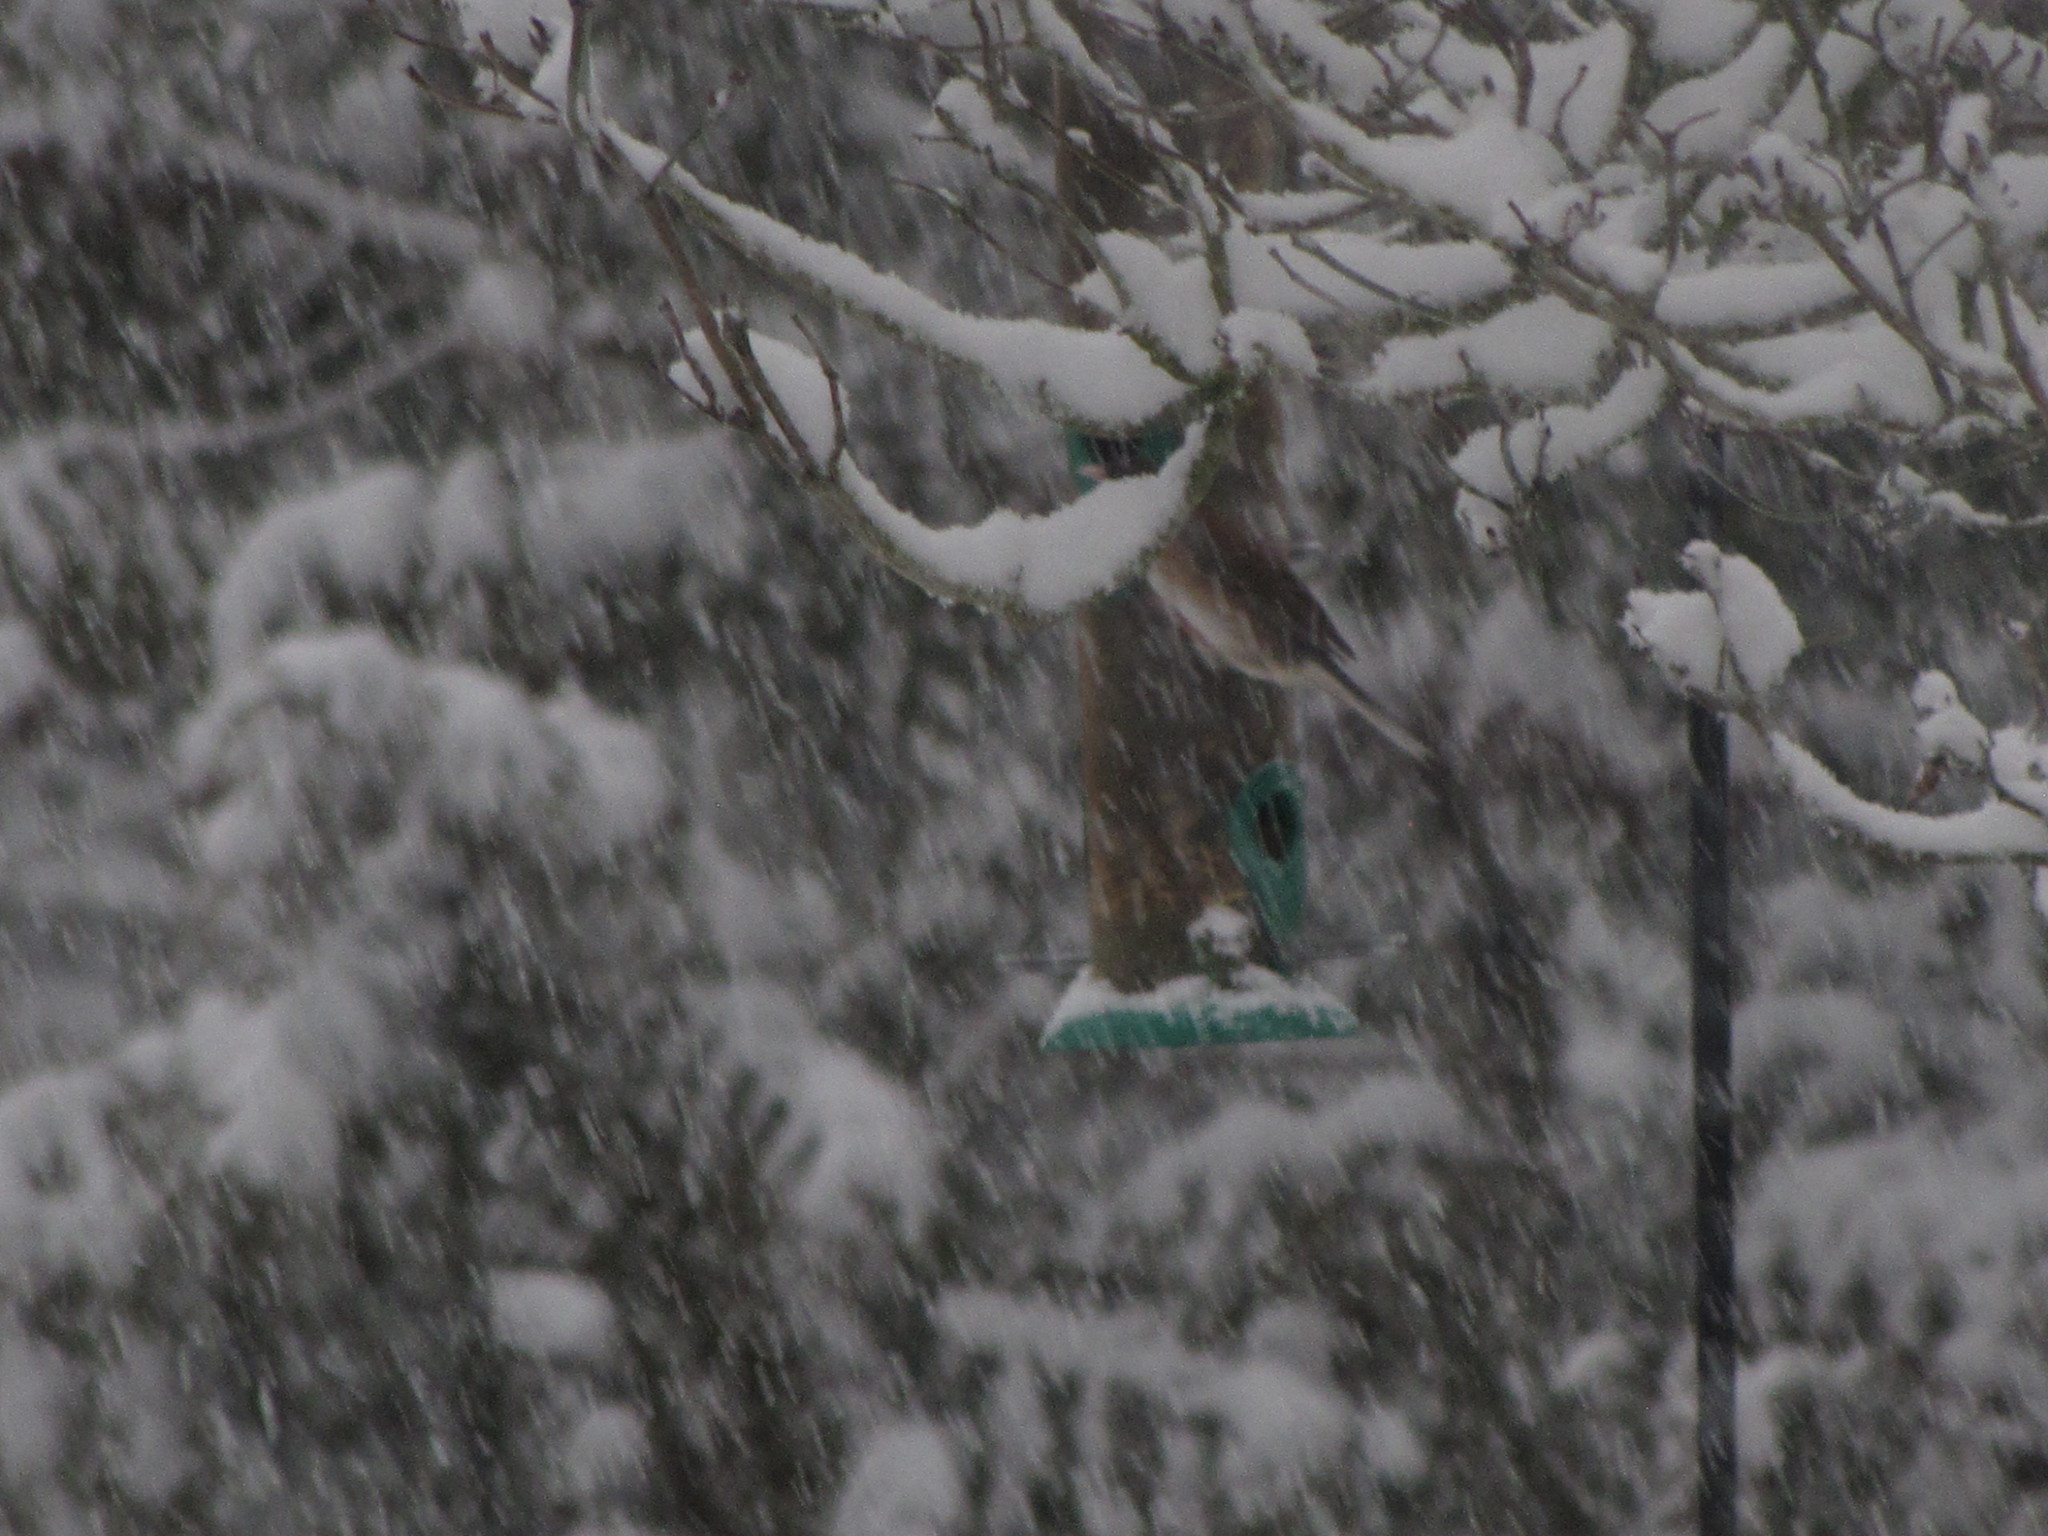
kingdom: Animalia
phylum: Chordata
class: Aves
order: Passeriformes
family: Passerellidae
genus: Junco
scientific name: Junco hyemalis
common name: Dark-eyed junco
